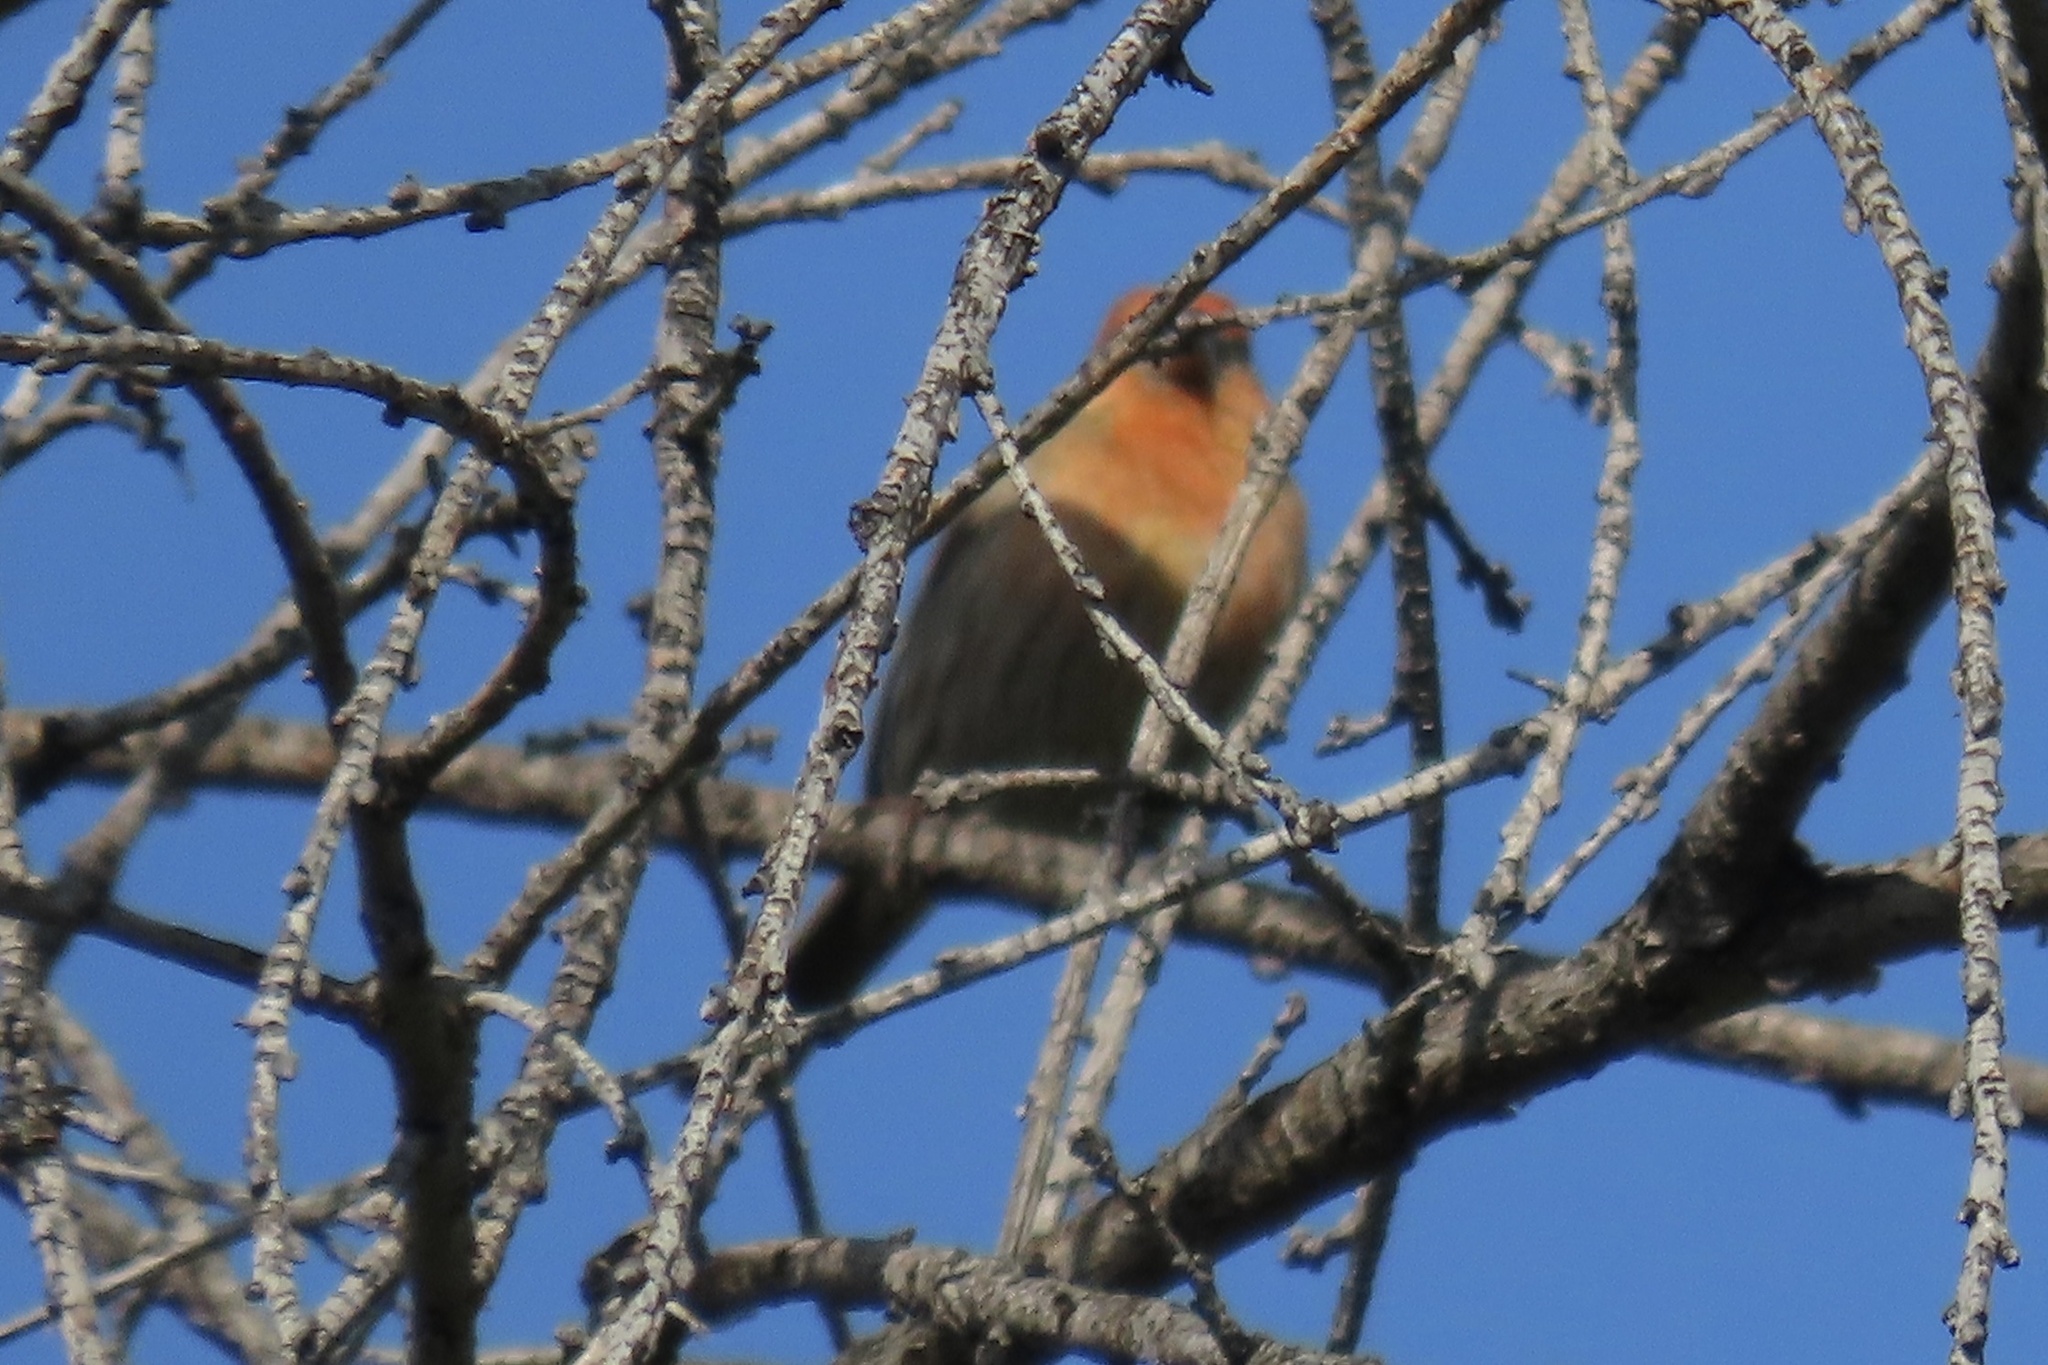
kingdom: Animalia
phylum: Chordata
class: Aves
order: Passeriformes
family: Fringillidae
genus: Haemorhous
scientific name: Haemorhous mexicanus
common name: House finch
